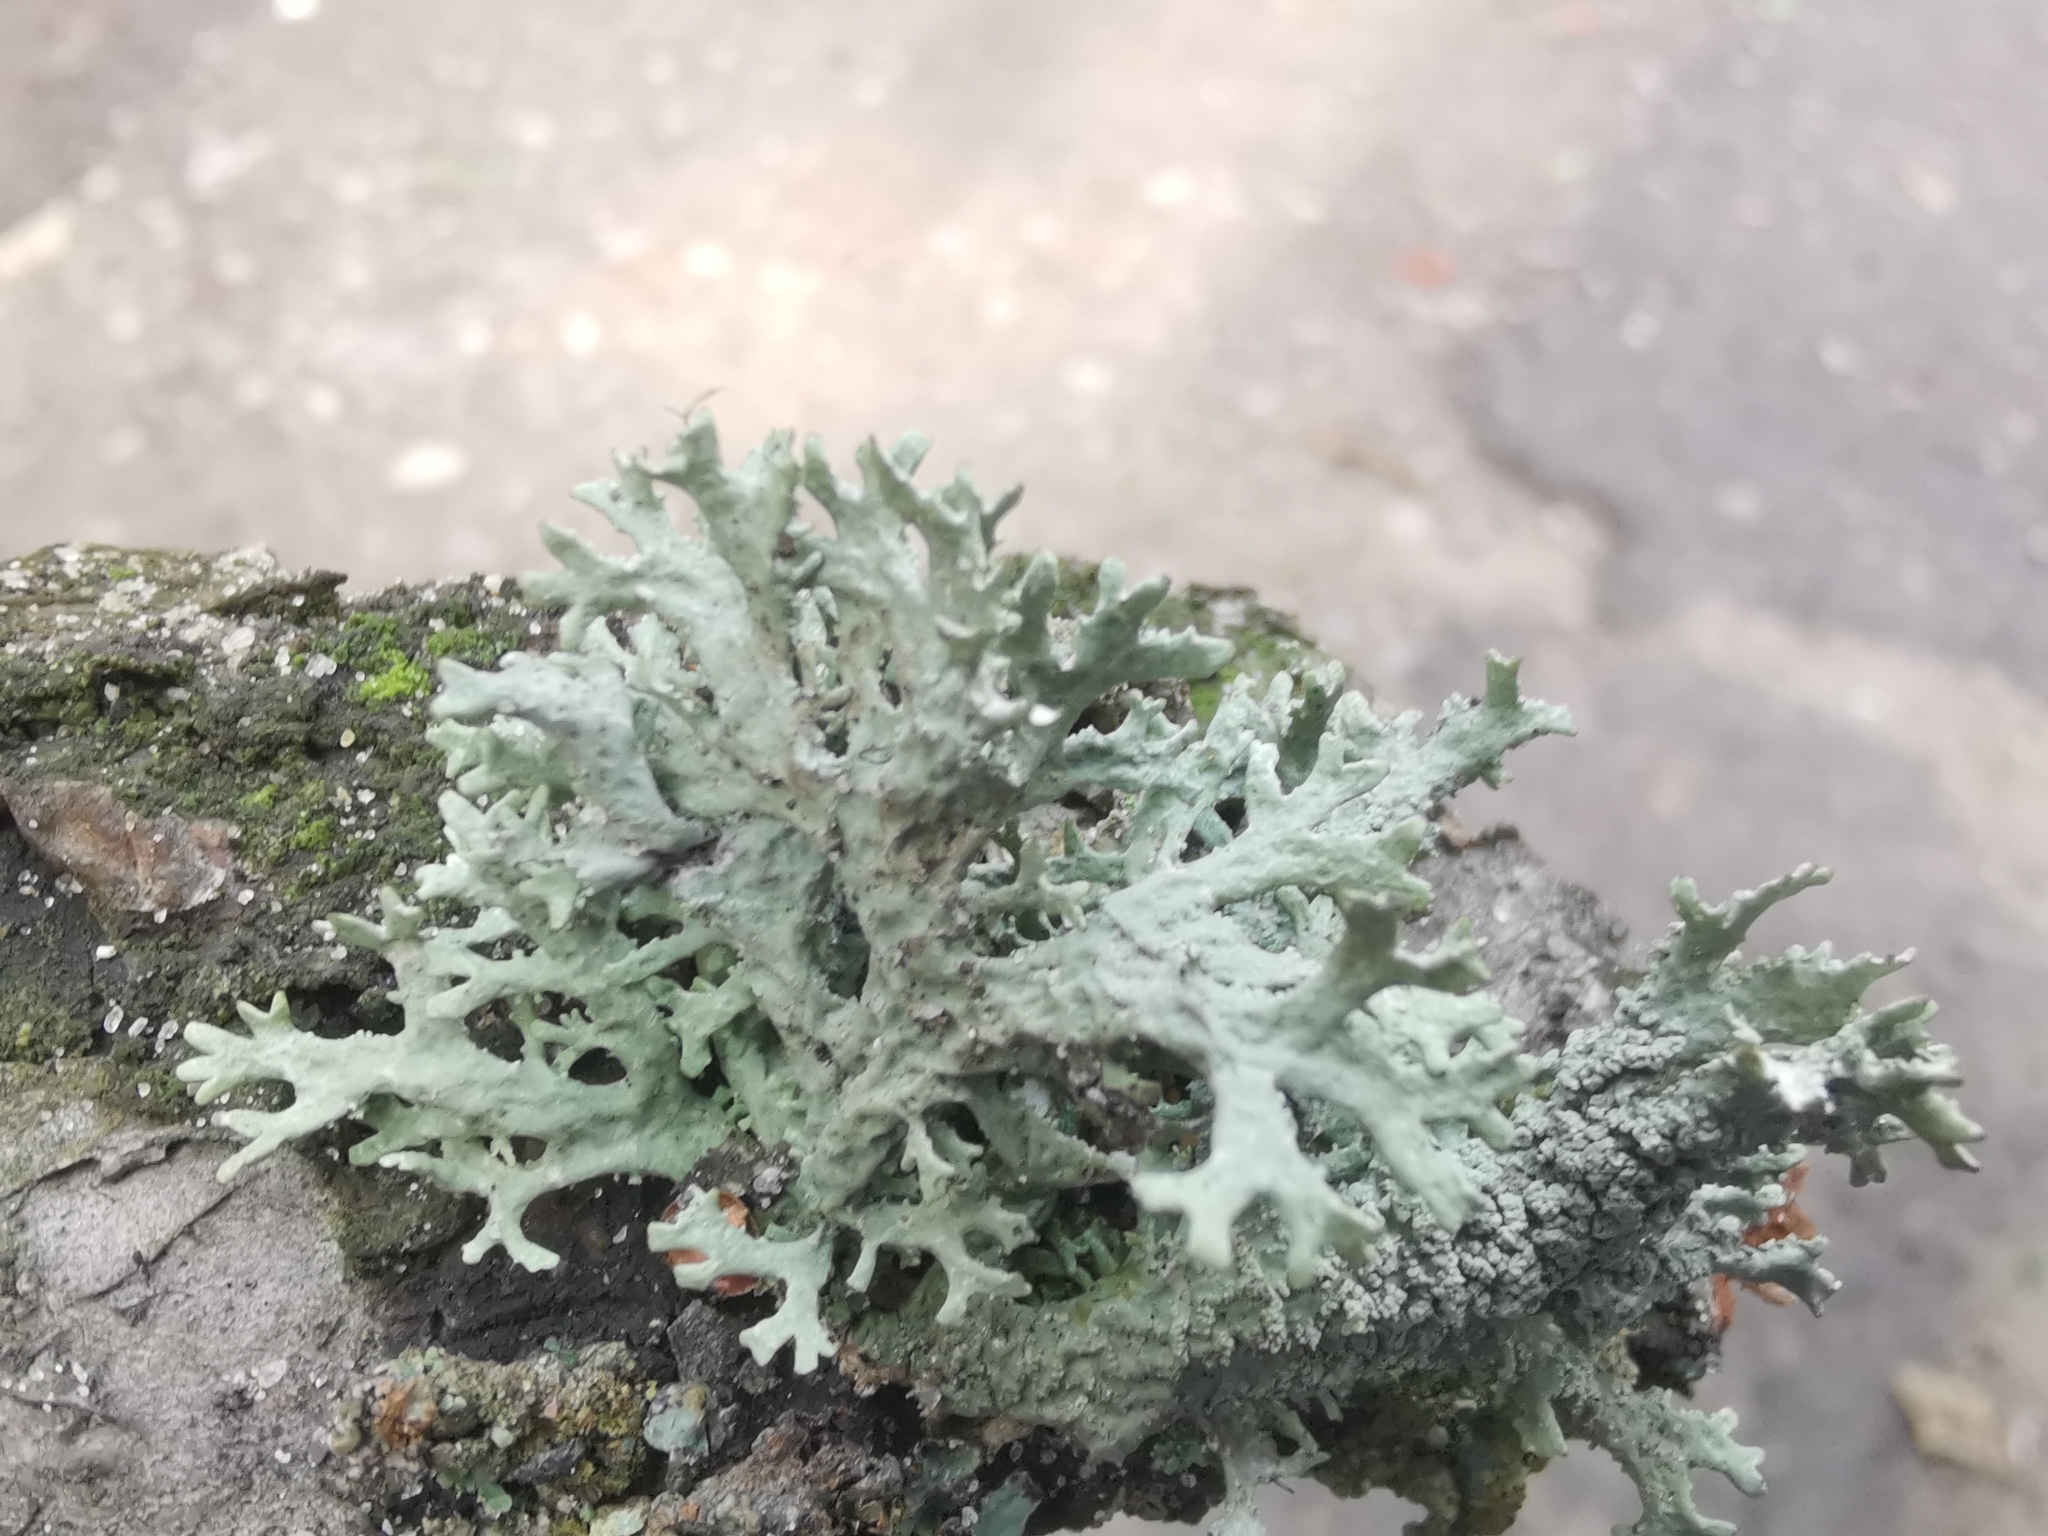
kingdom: Fungi
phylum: Ascomycota
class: Lecanoromycetes
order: Lecanorales
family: Parmeliaceae
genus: Evernia
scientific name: Evernia prunastri
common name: Oak moss
